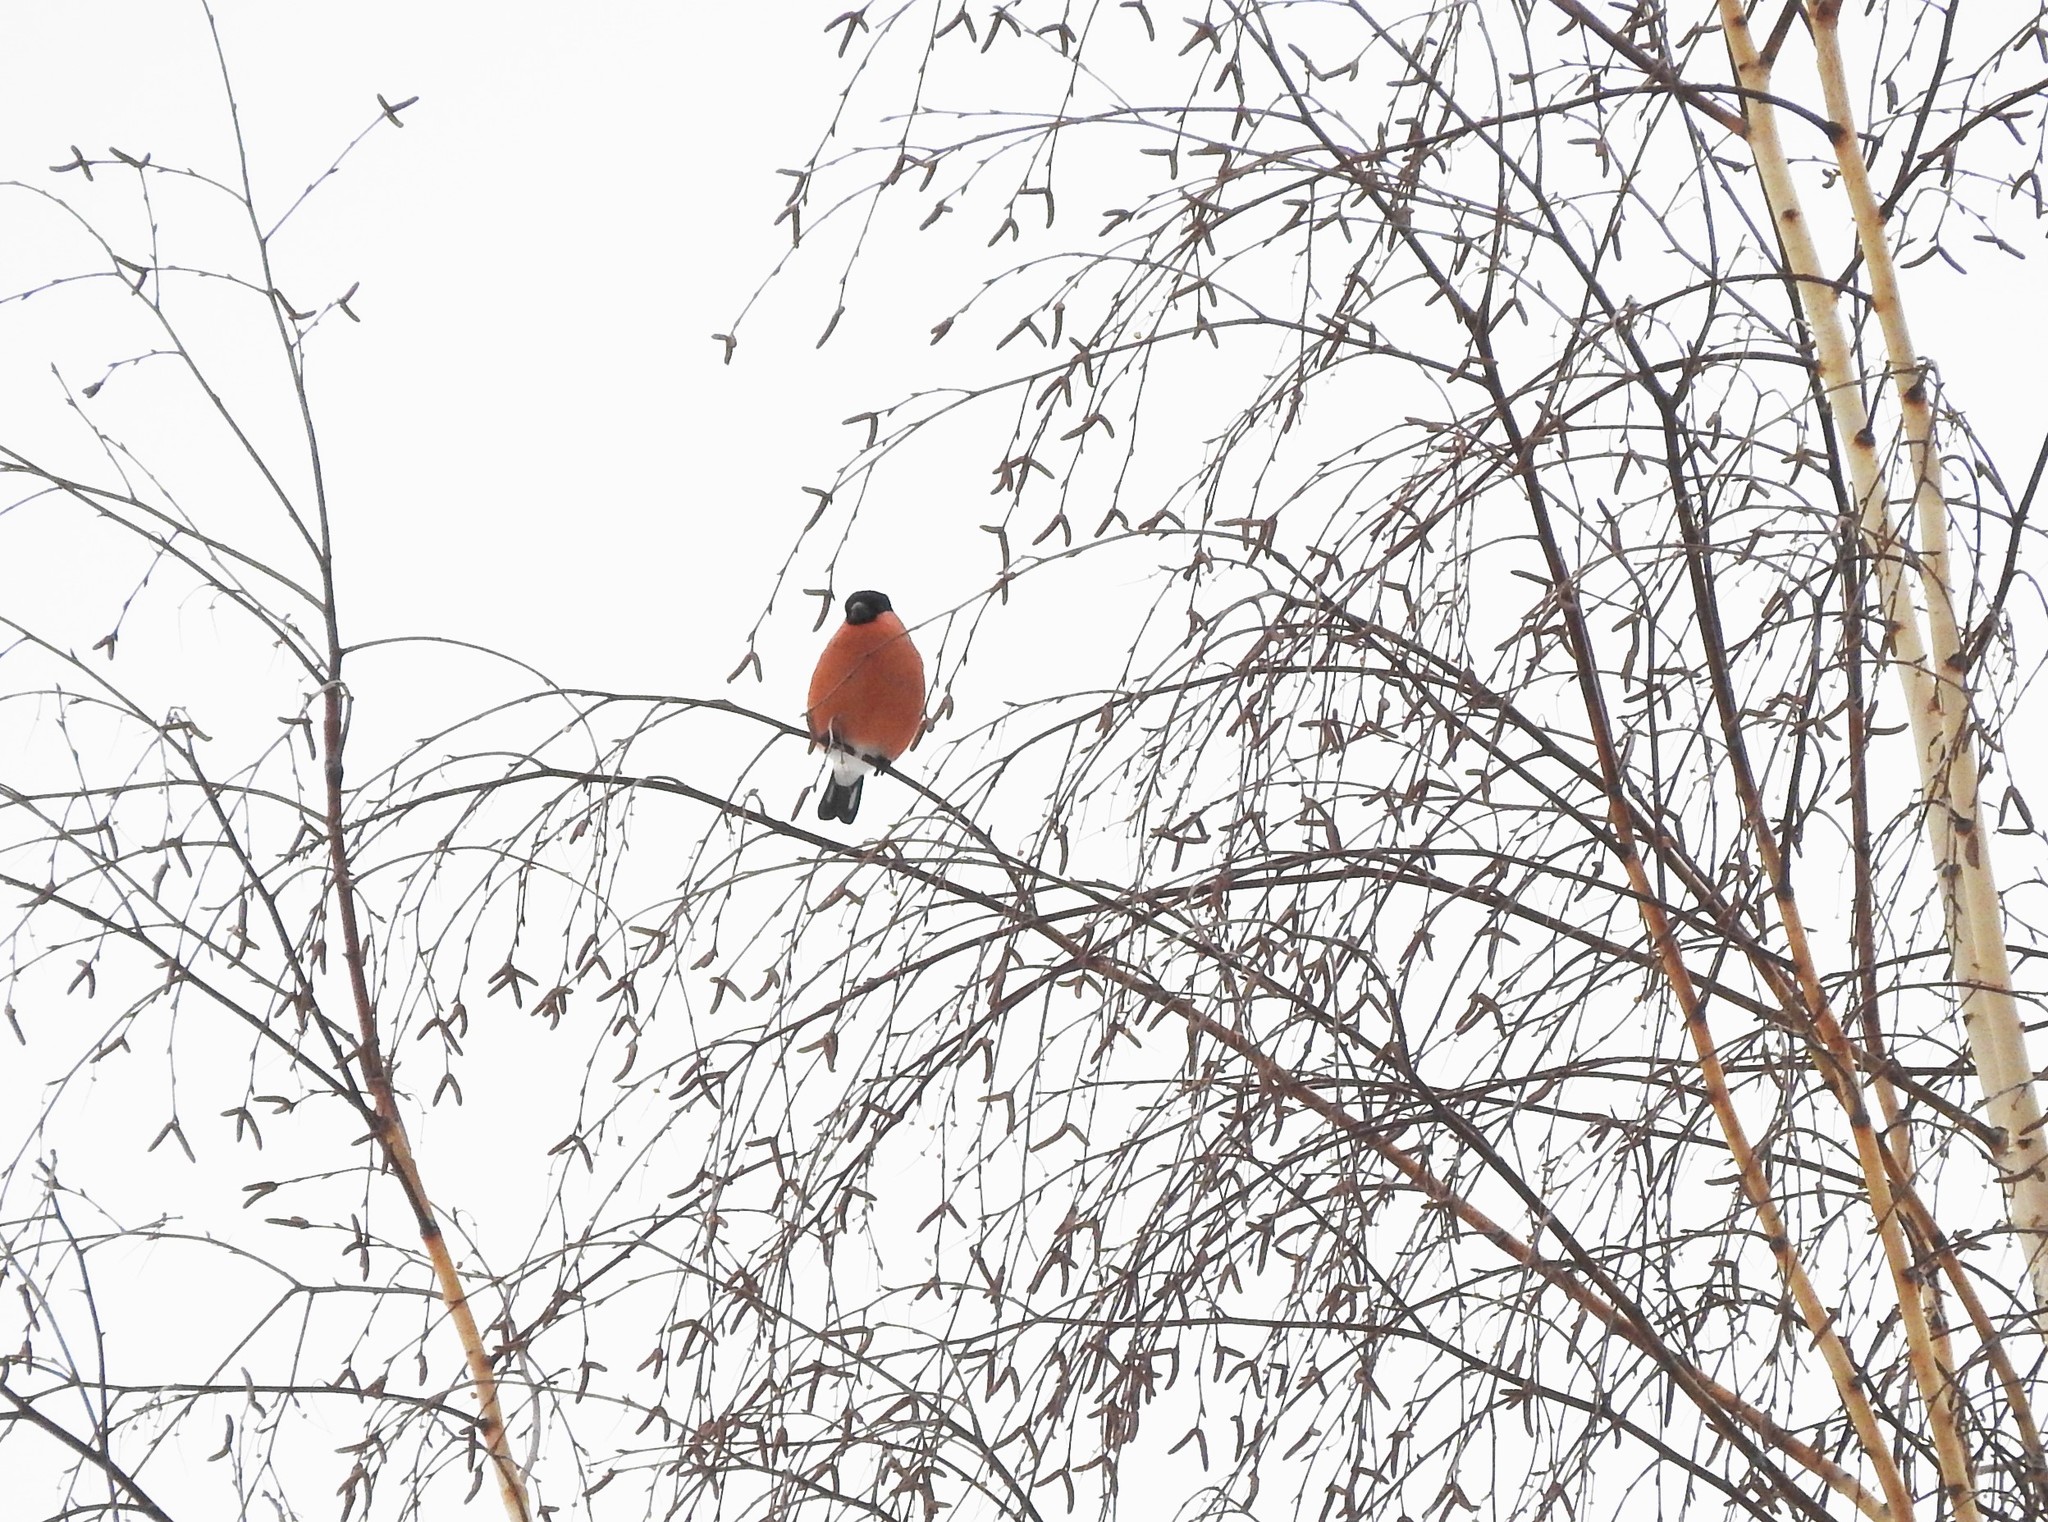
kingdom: Animalia
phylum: Chordata
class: Aves
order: Passeriformes
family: Fringillidae
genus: Pyrrhula
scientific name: Pyrrhula pyrrhula
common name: Eurasian bullfinch
